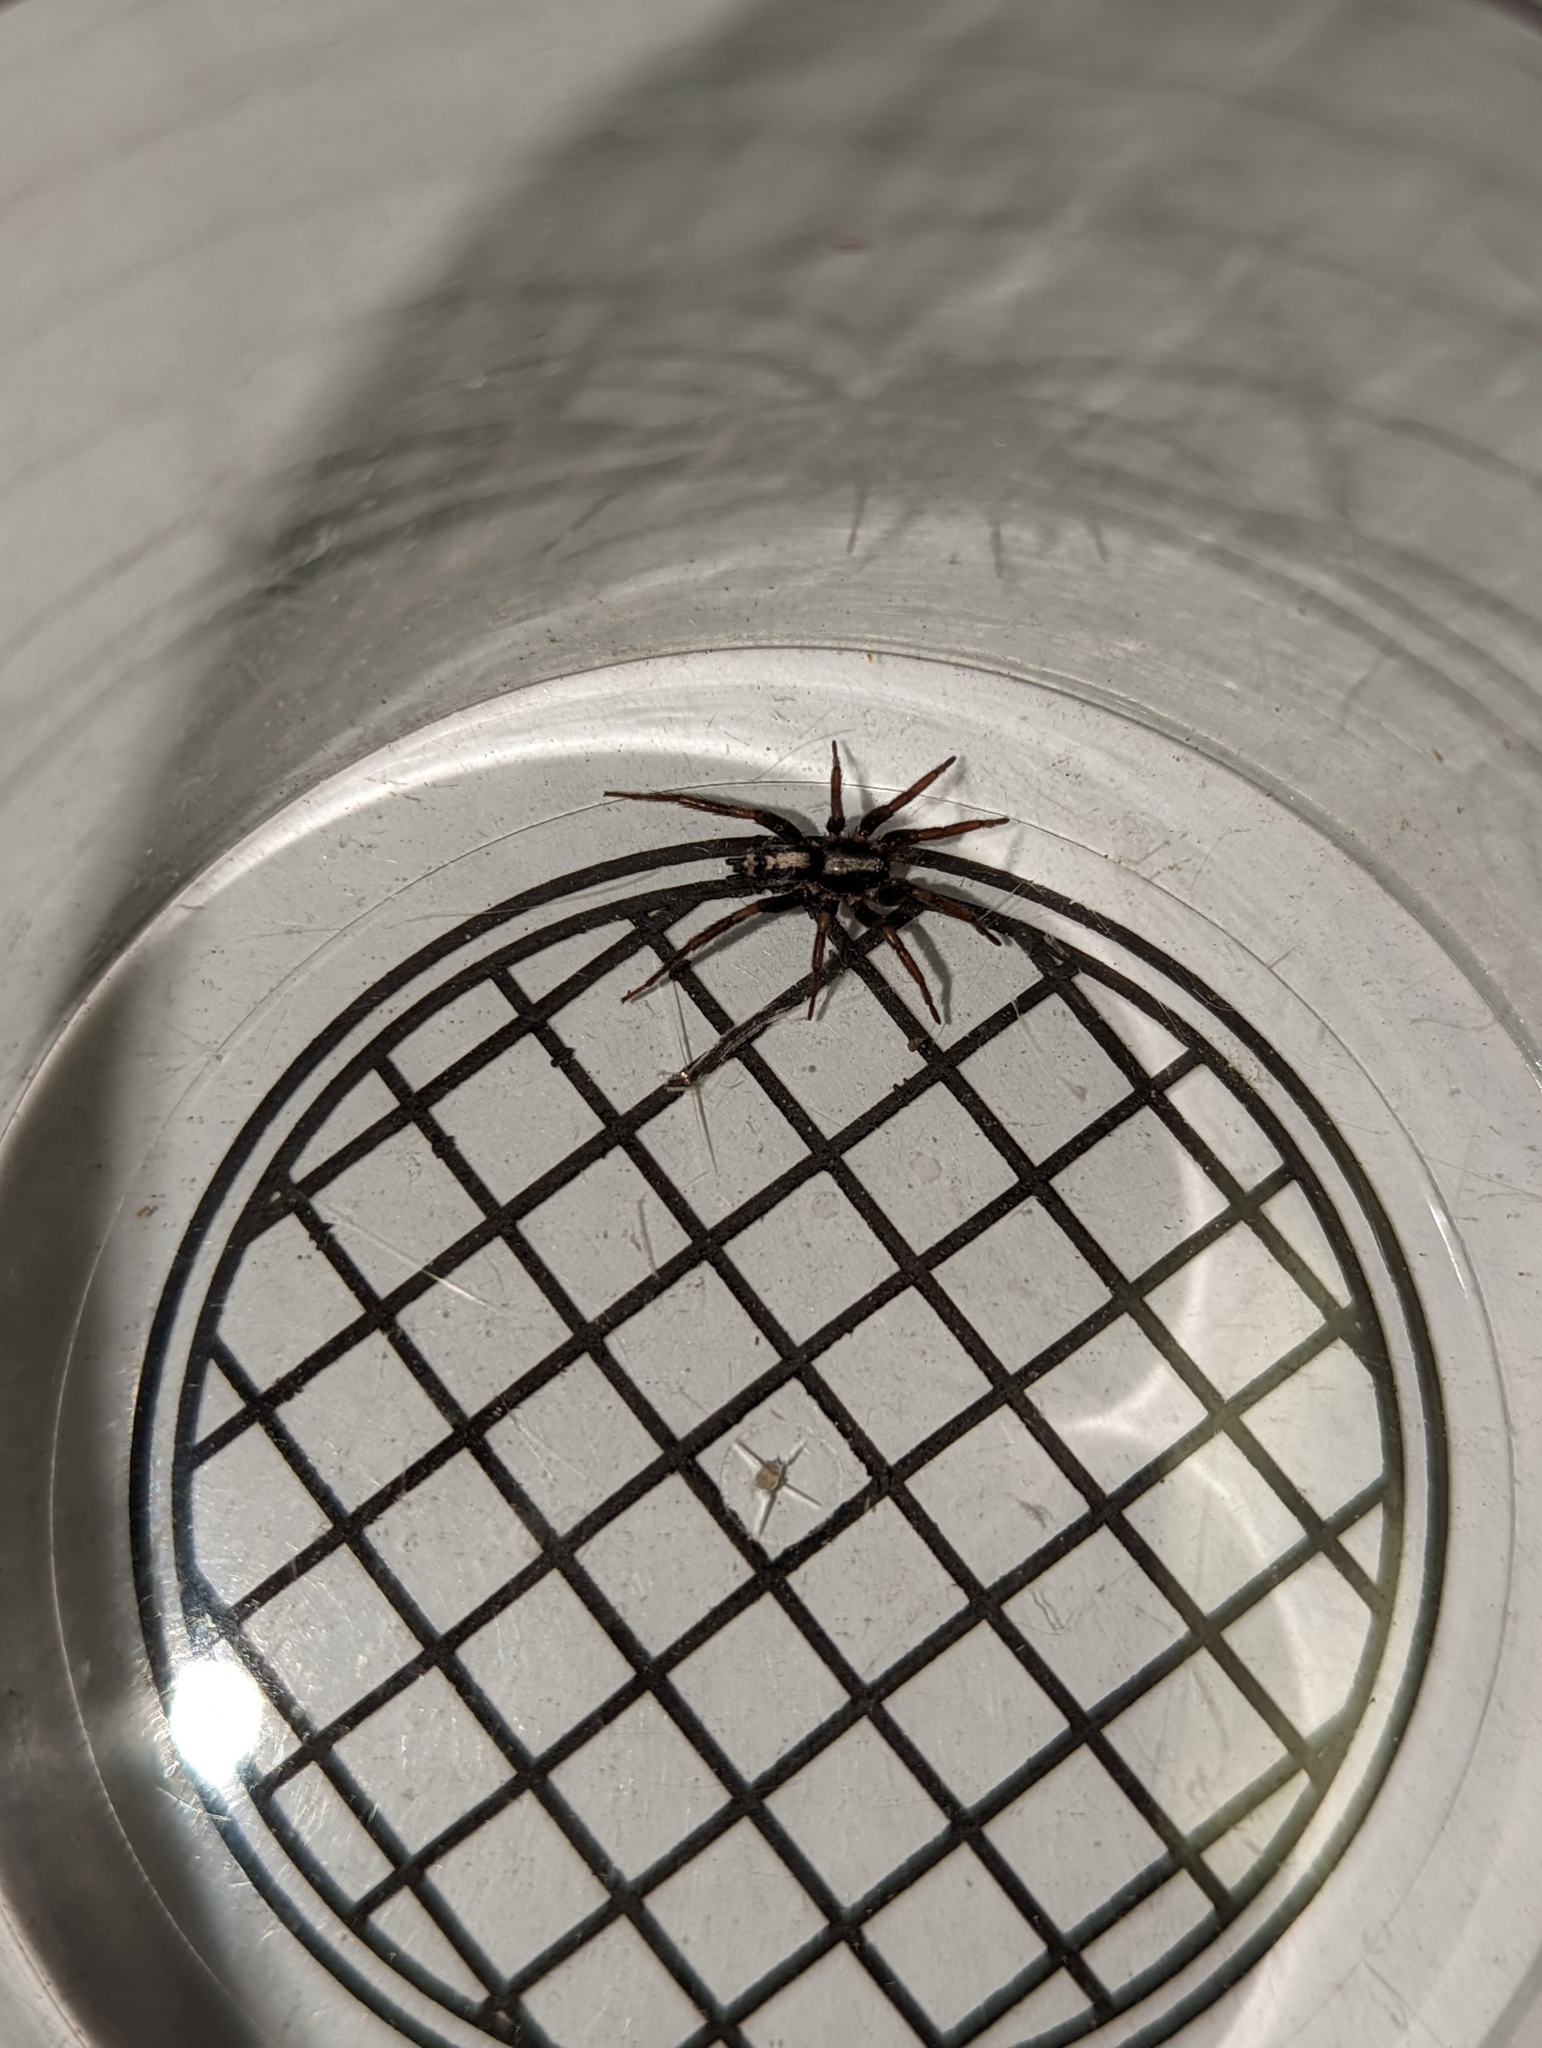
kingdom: Animalia
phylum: Arthropoda
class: Arachnida
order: Araneae
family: Gnaphosidae
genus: Herpyllus
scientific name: Herpyllus ecclesiasticus
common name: Eastern parson spider
